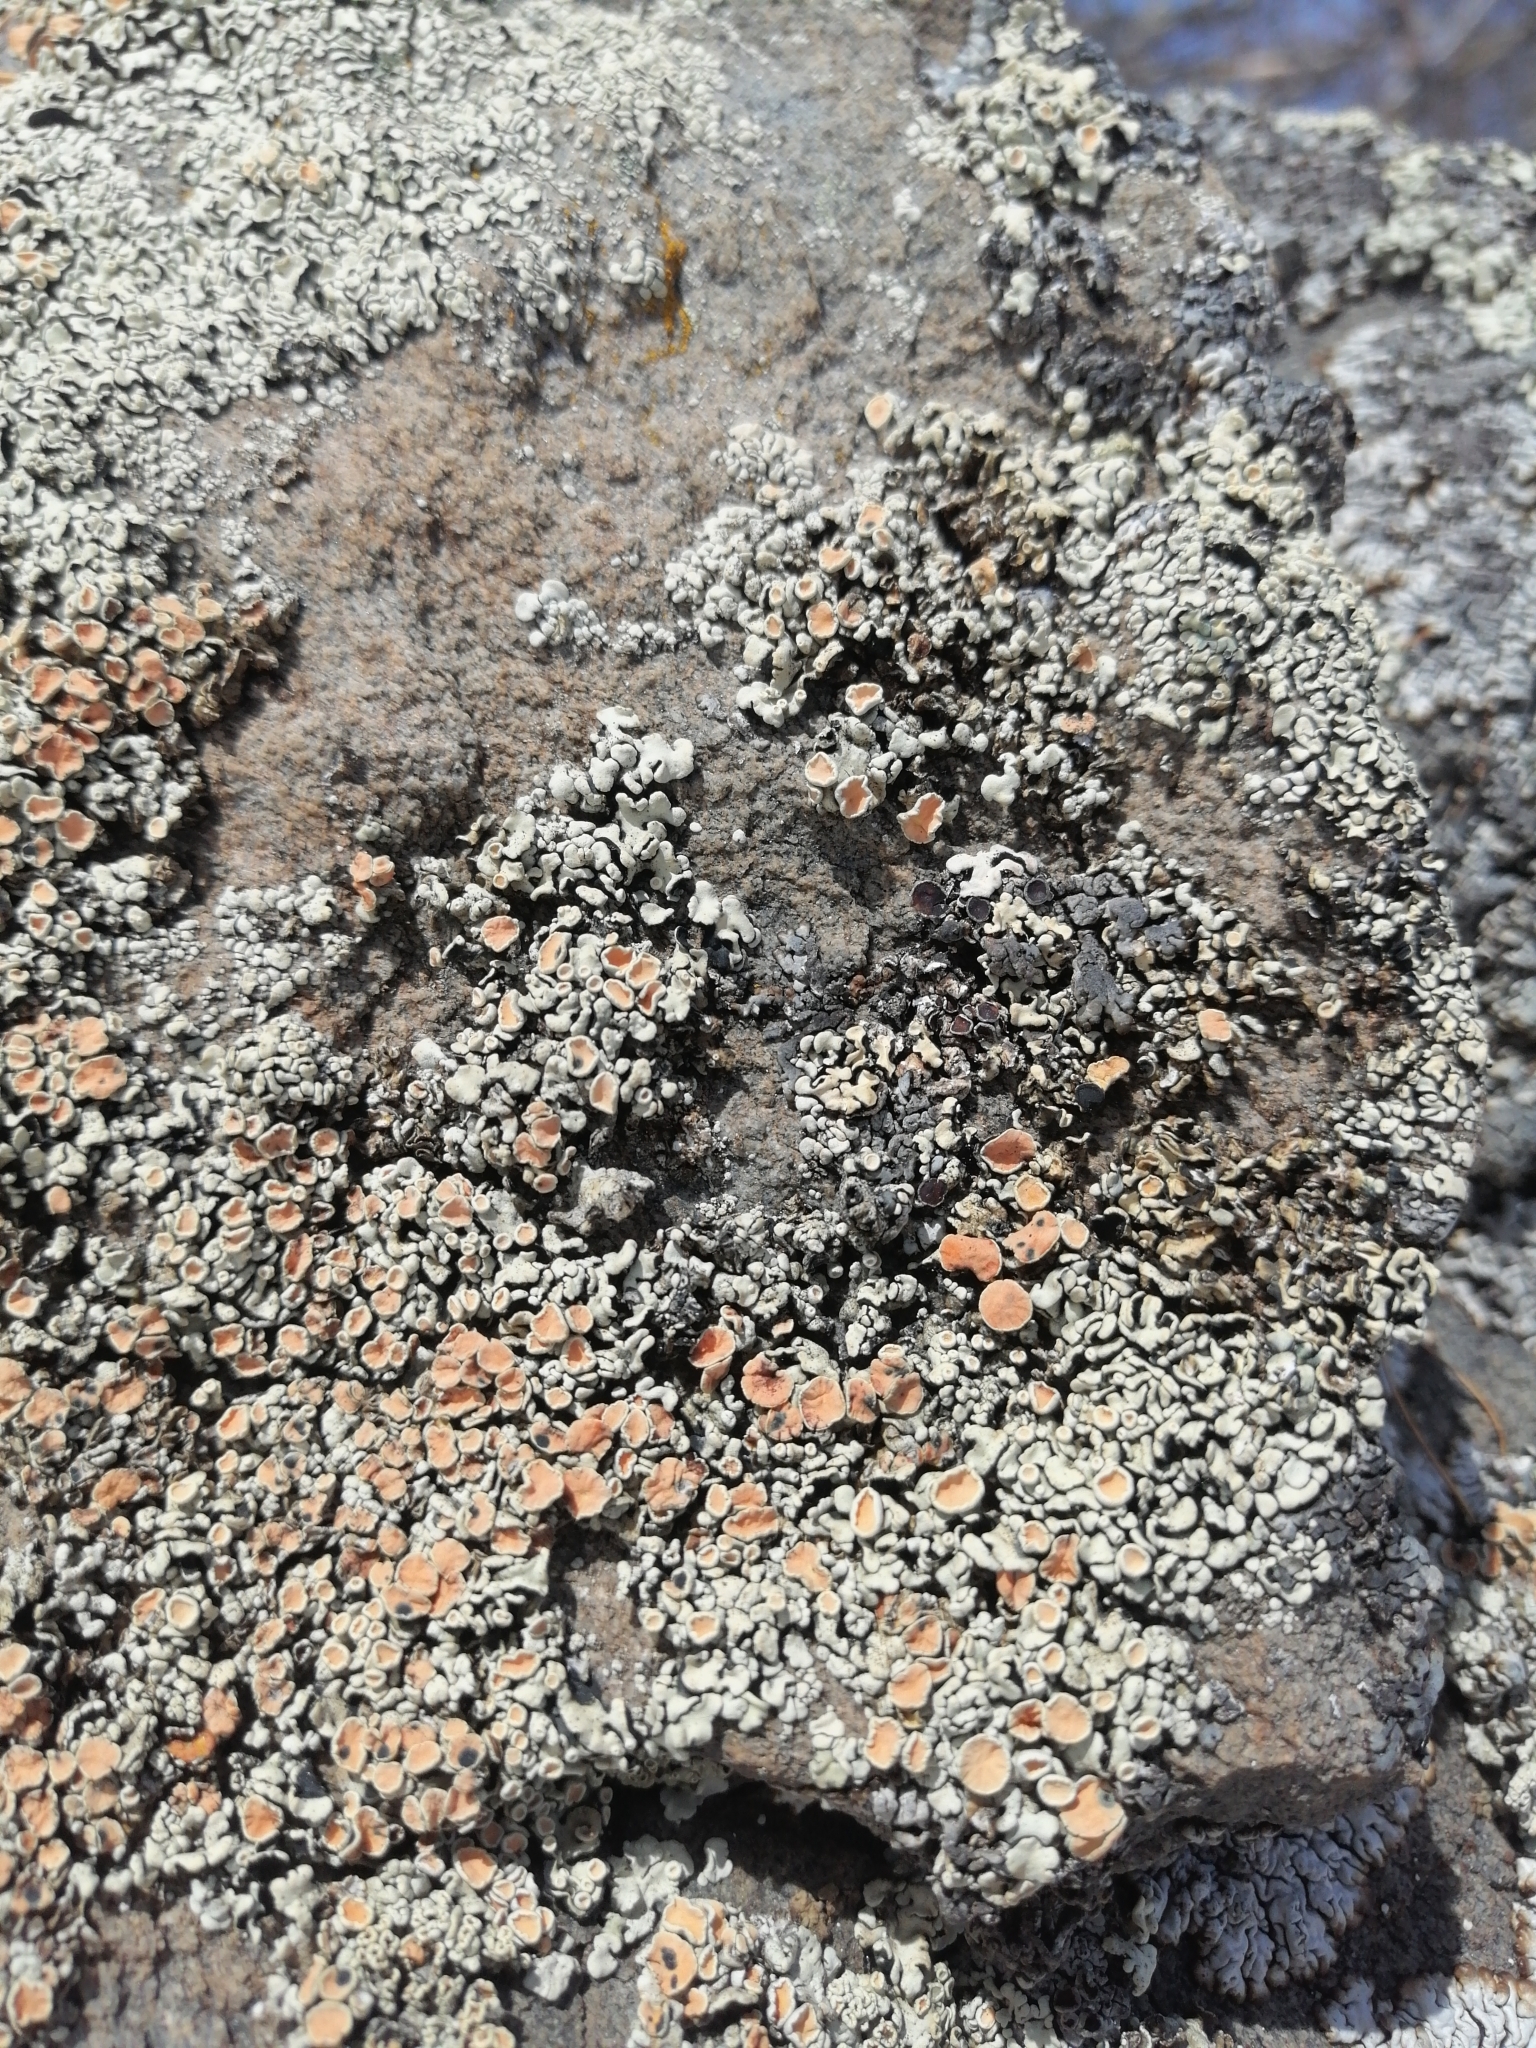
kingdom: Fungi
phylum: Ascomycota
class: Lecanoromycetes
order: Lecanorales
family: Lecanoraceae
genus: Omphalodina
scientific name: Omphalodina chrysoleuca
